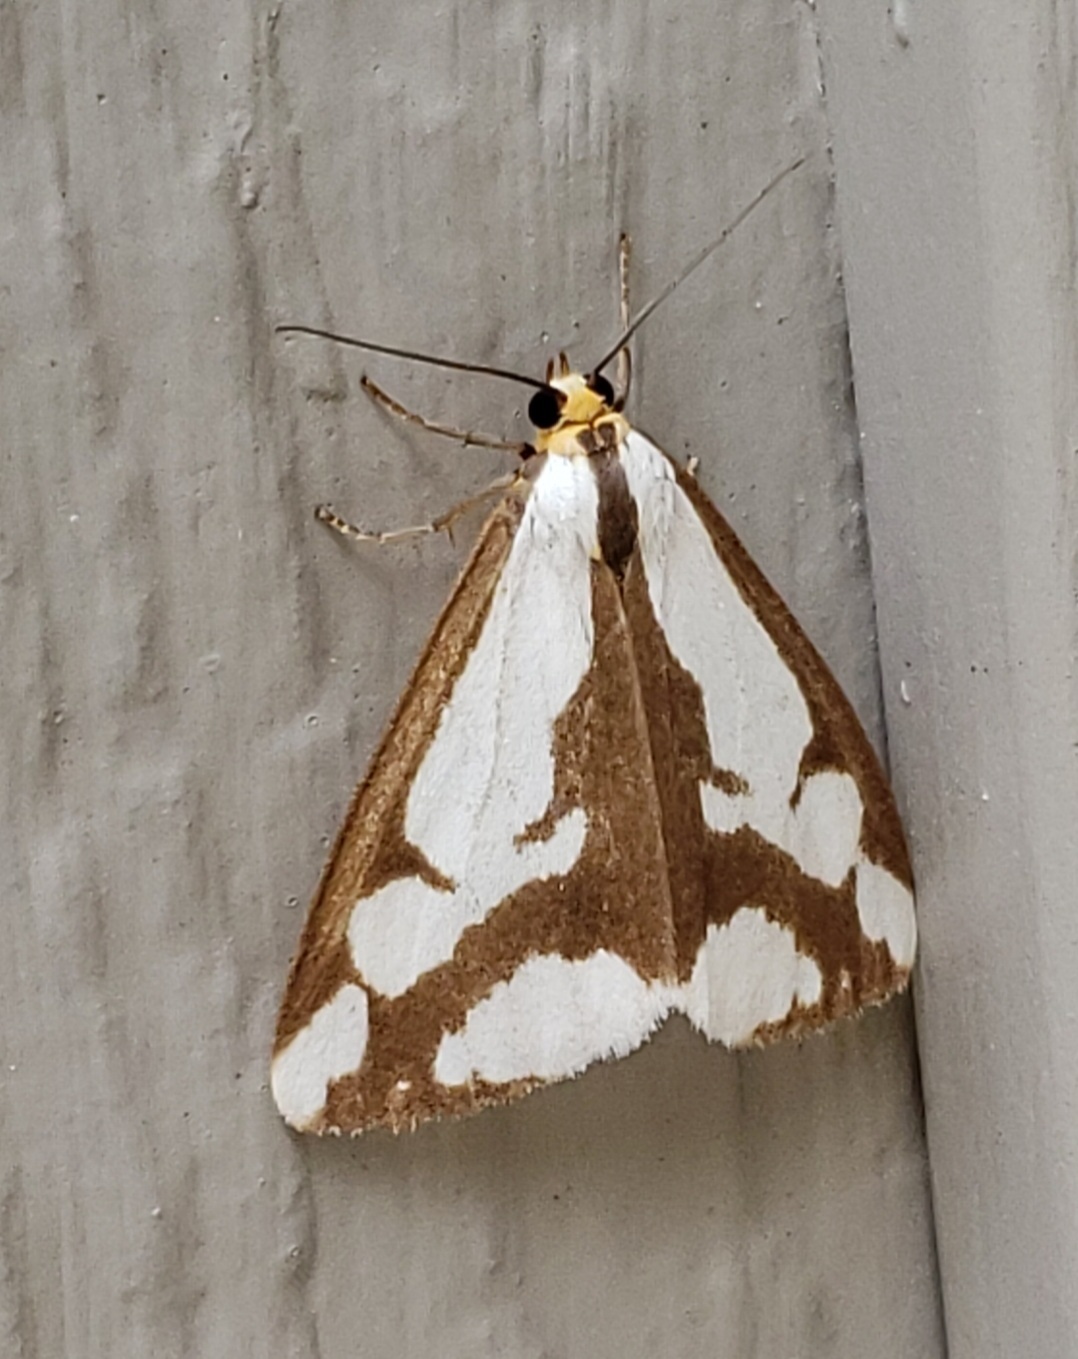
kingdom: Animalia
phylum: Arthropoda
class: Insecta
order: Lepidoptera
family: Erebidae
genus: Haploa
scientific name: Haploa lecontei
